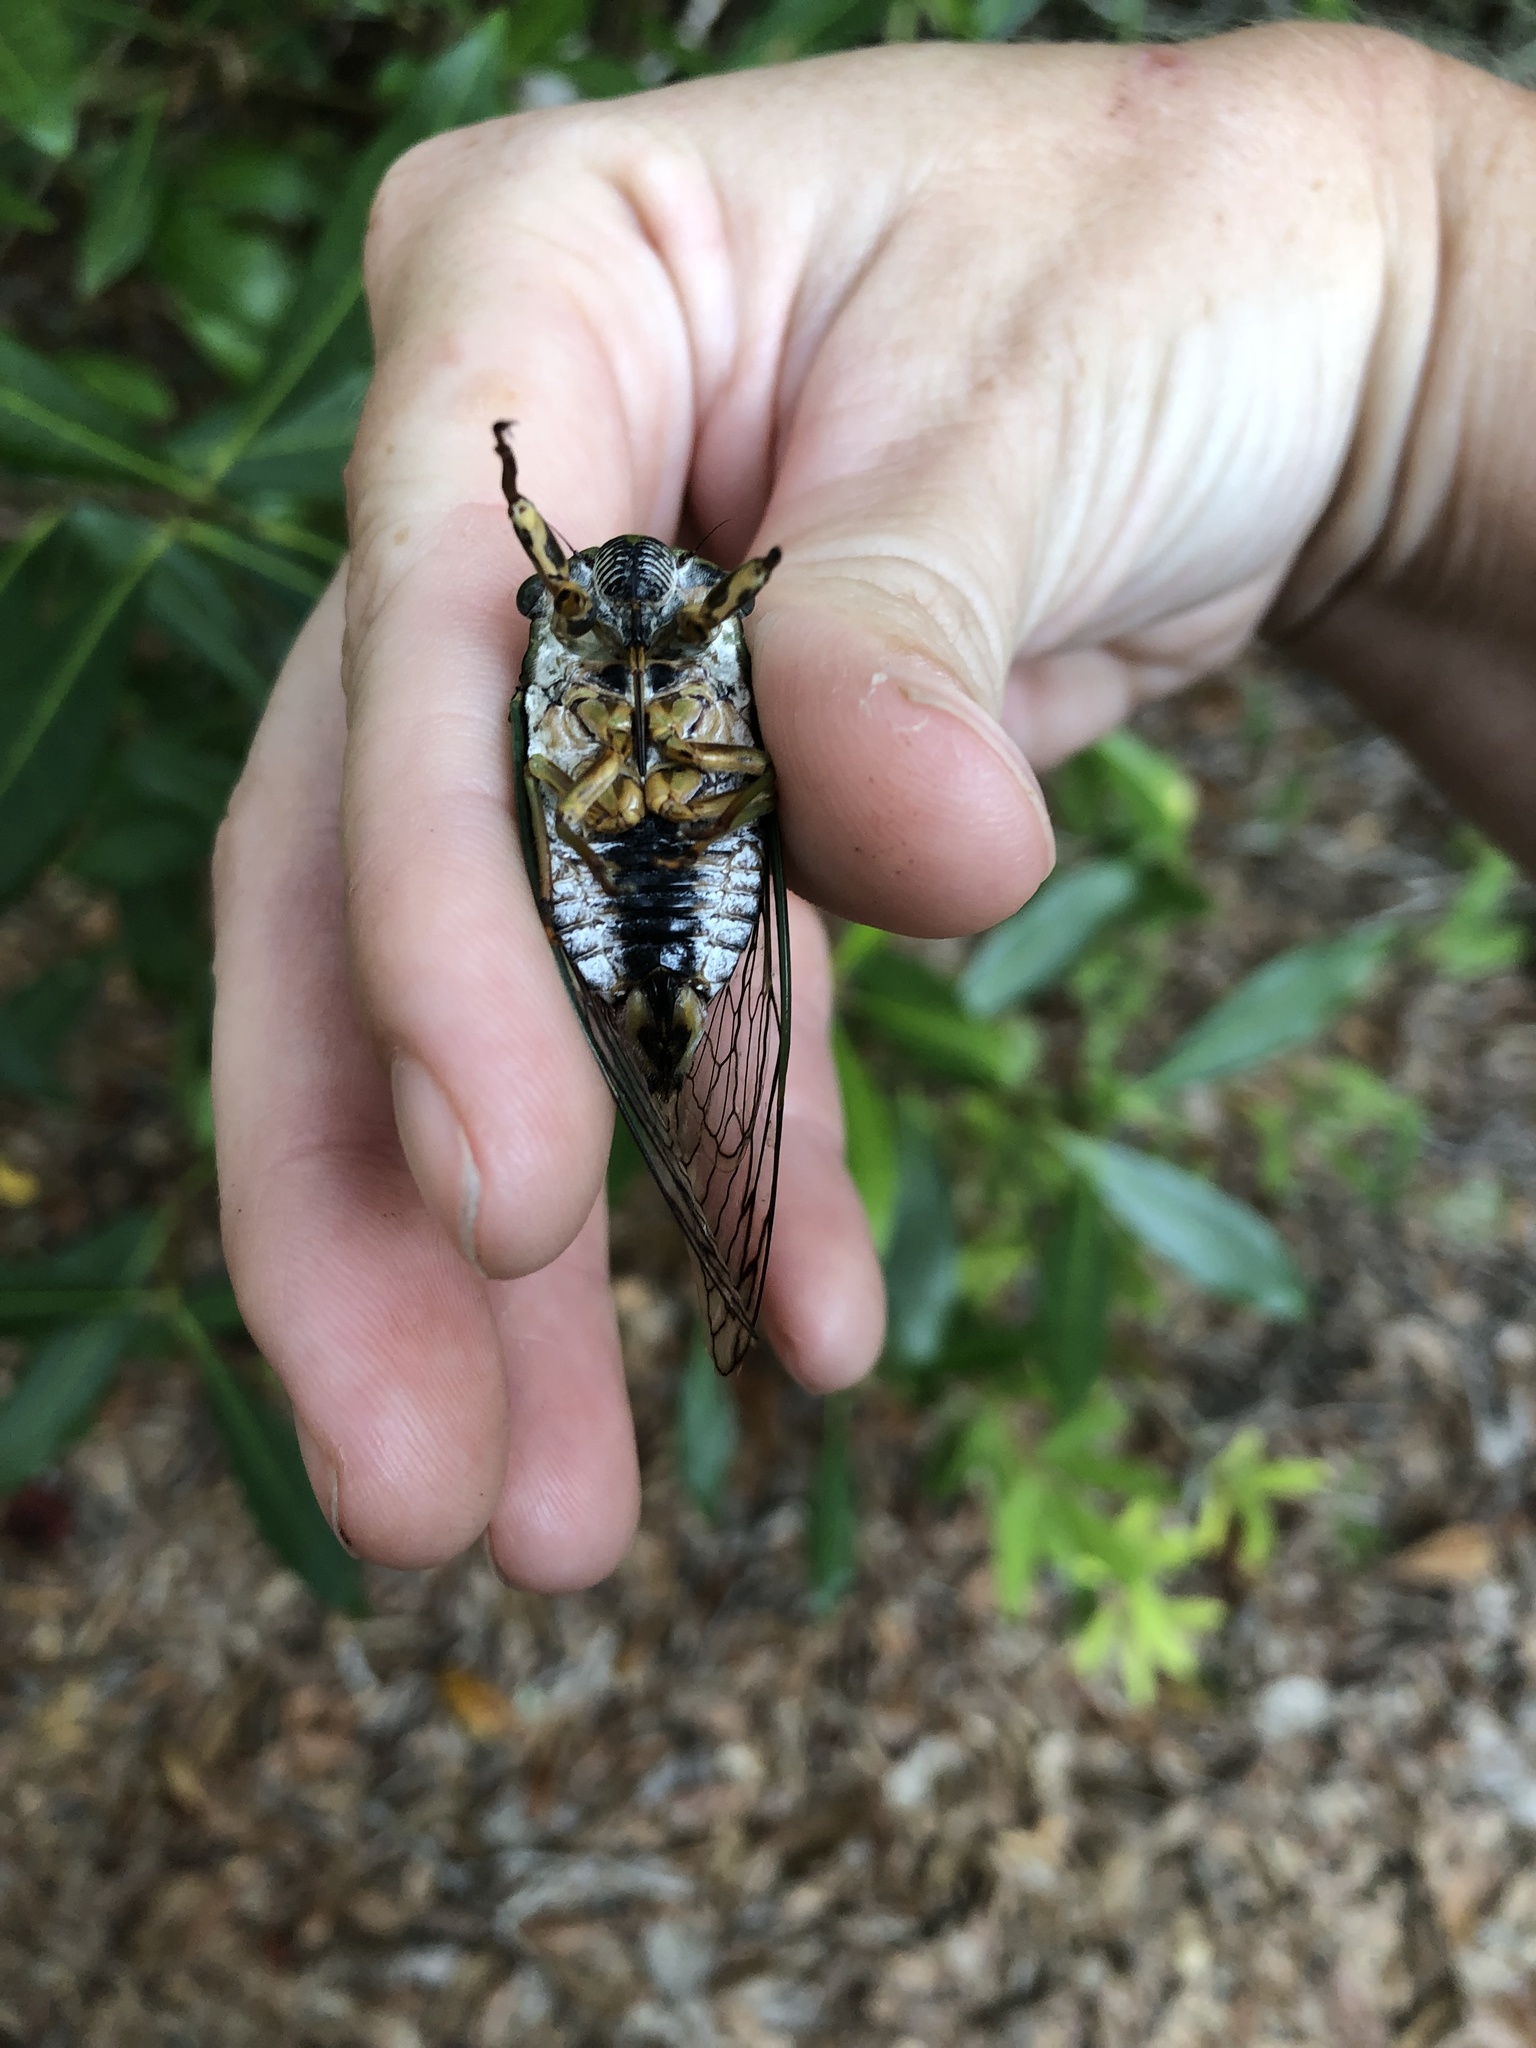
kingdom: Animalia
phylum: Arthropoda
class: Insecta
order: Hemiptera
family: Cicadidae
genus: Neotibicen
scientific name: Neotibicen latifasciatus
